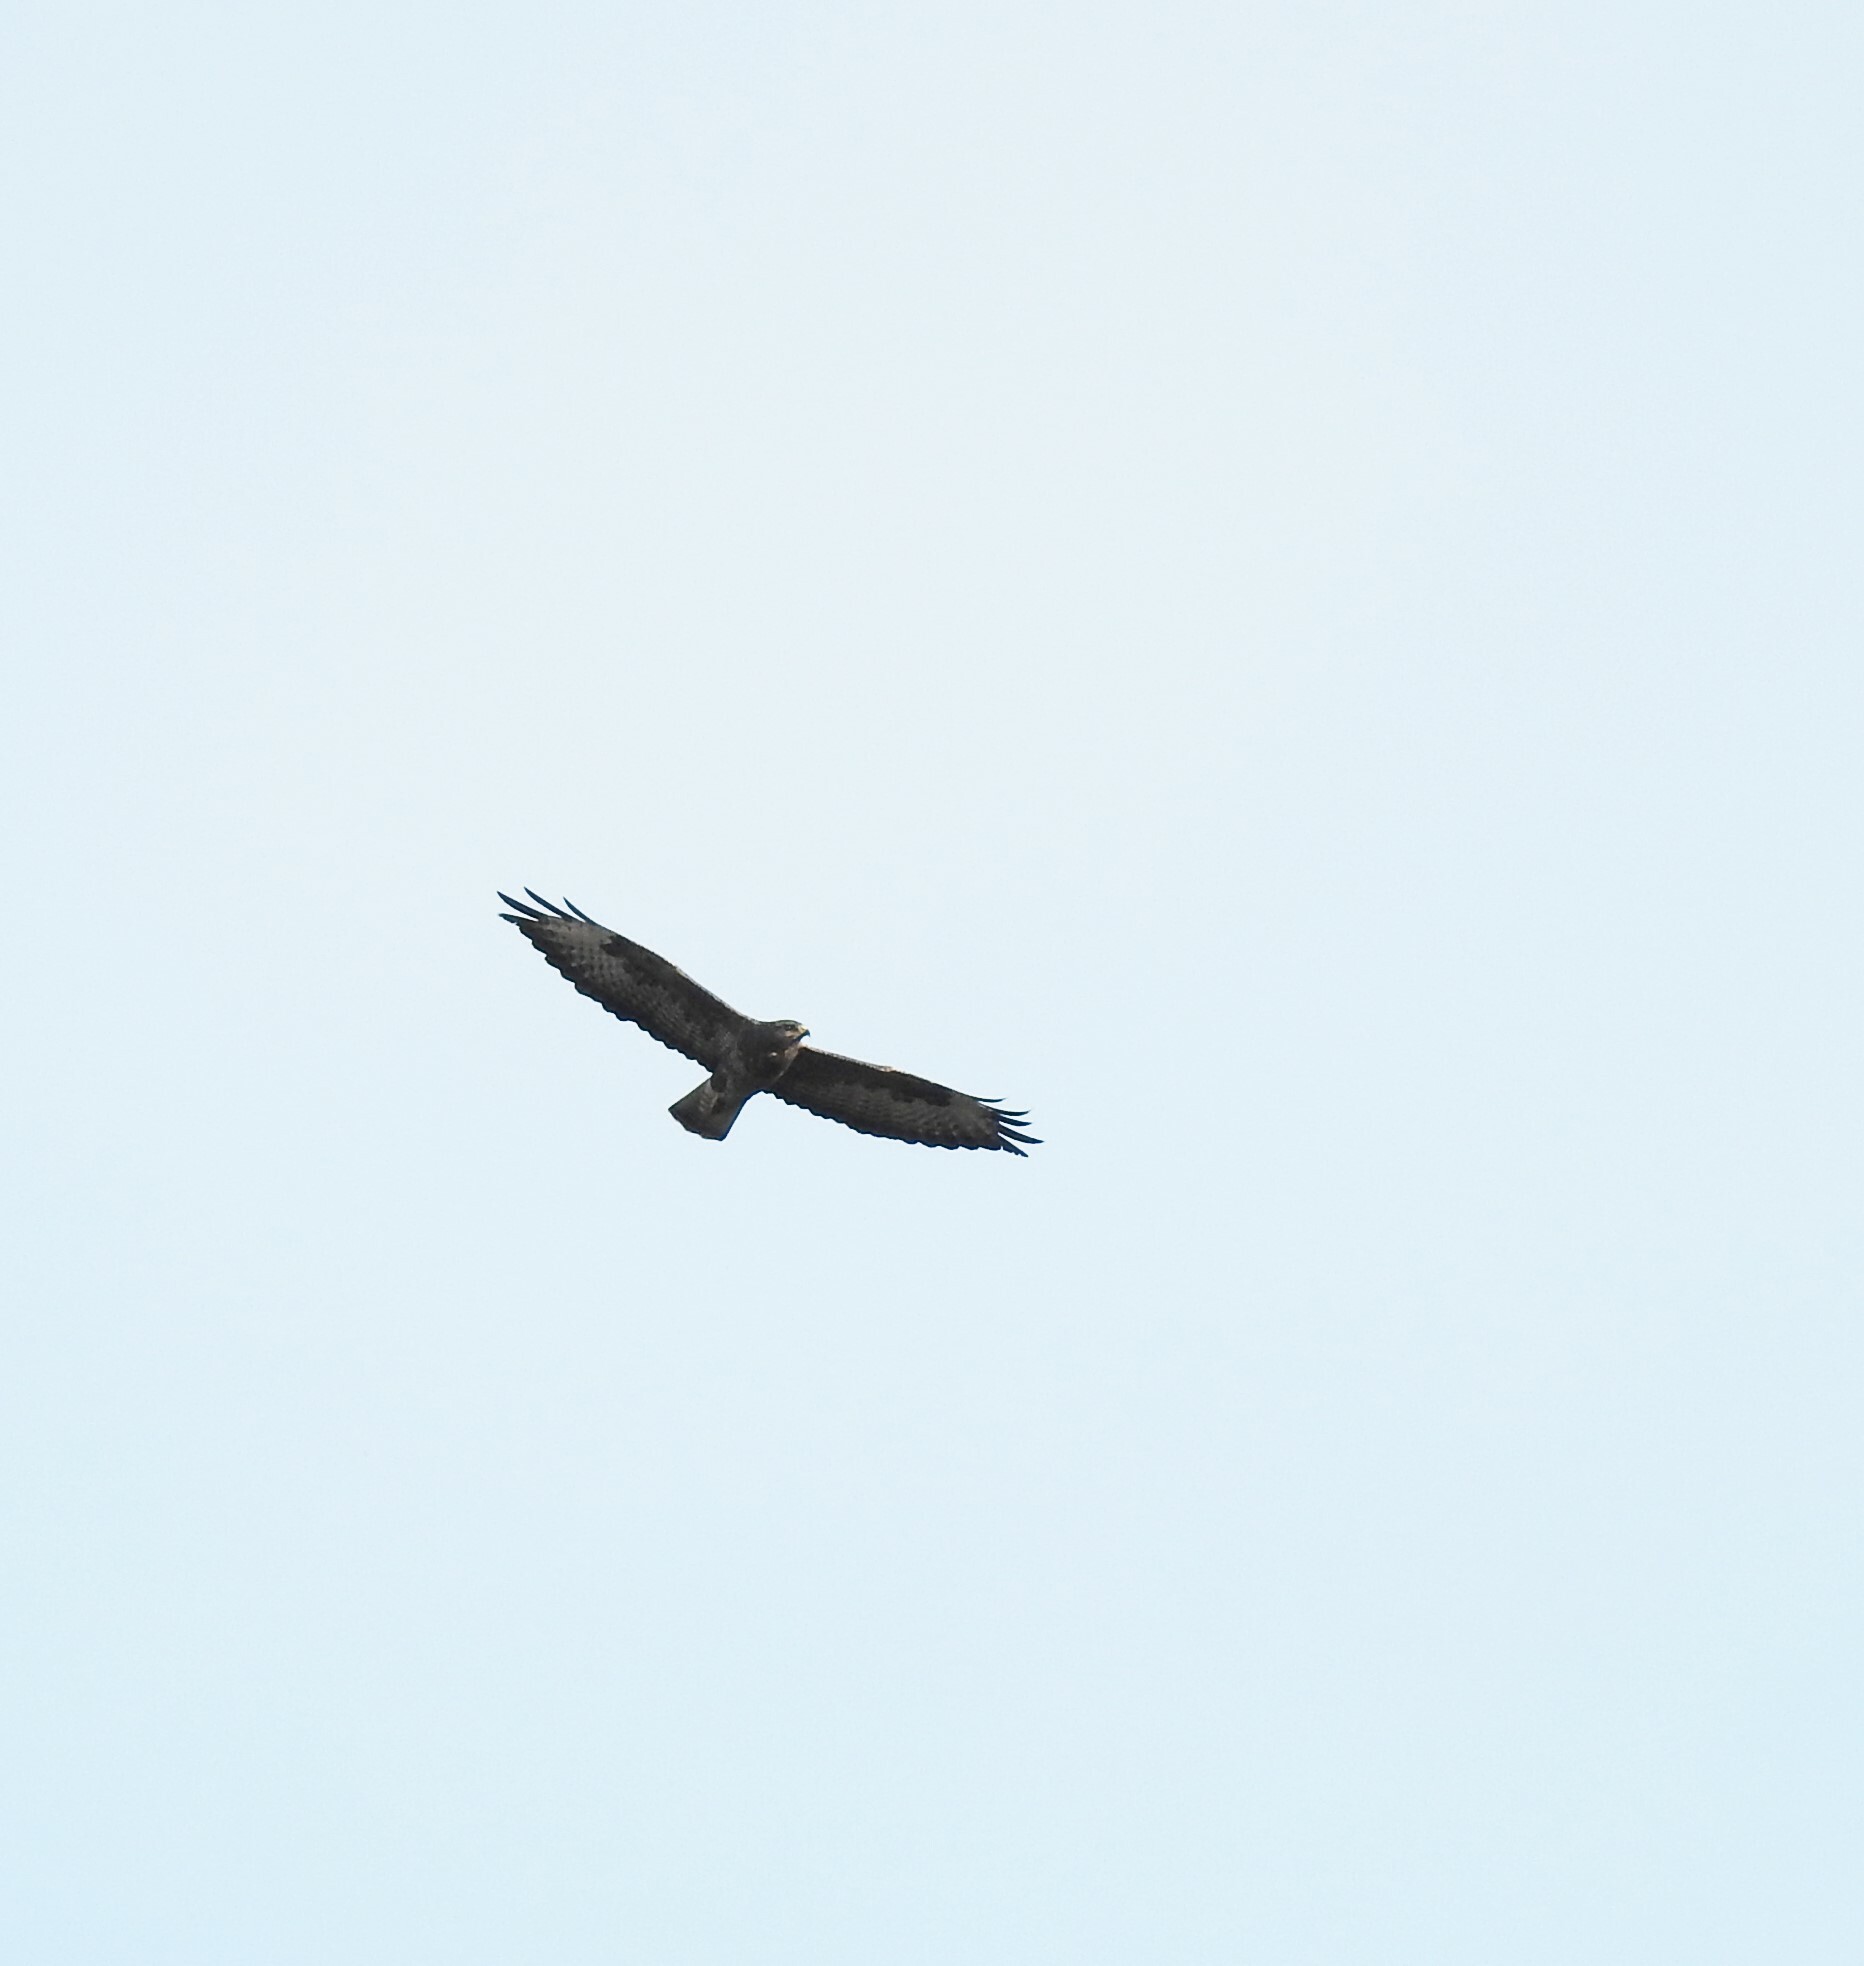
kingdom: Animalia
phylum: Chordata
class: Aves
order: Accipitriformes
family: Accipitridae
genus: Buteo
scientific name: Buteo buteo
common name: Common buzzard
